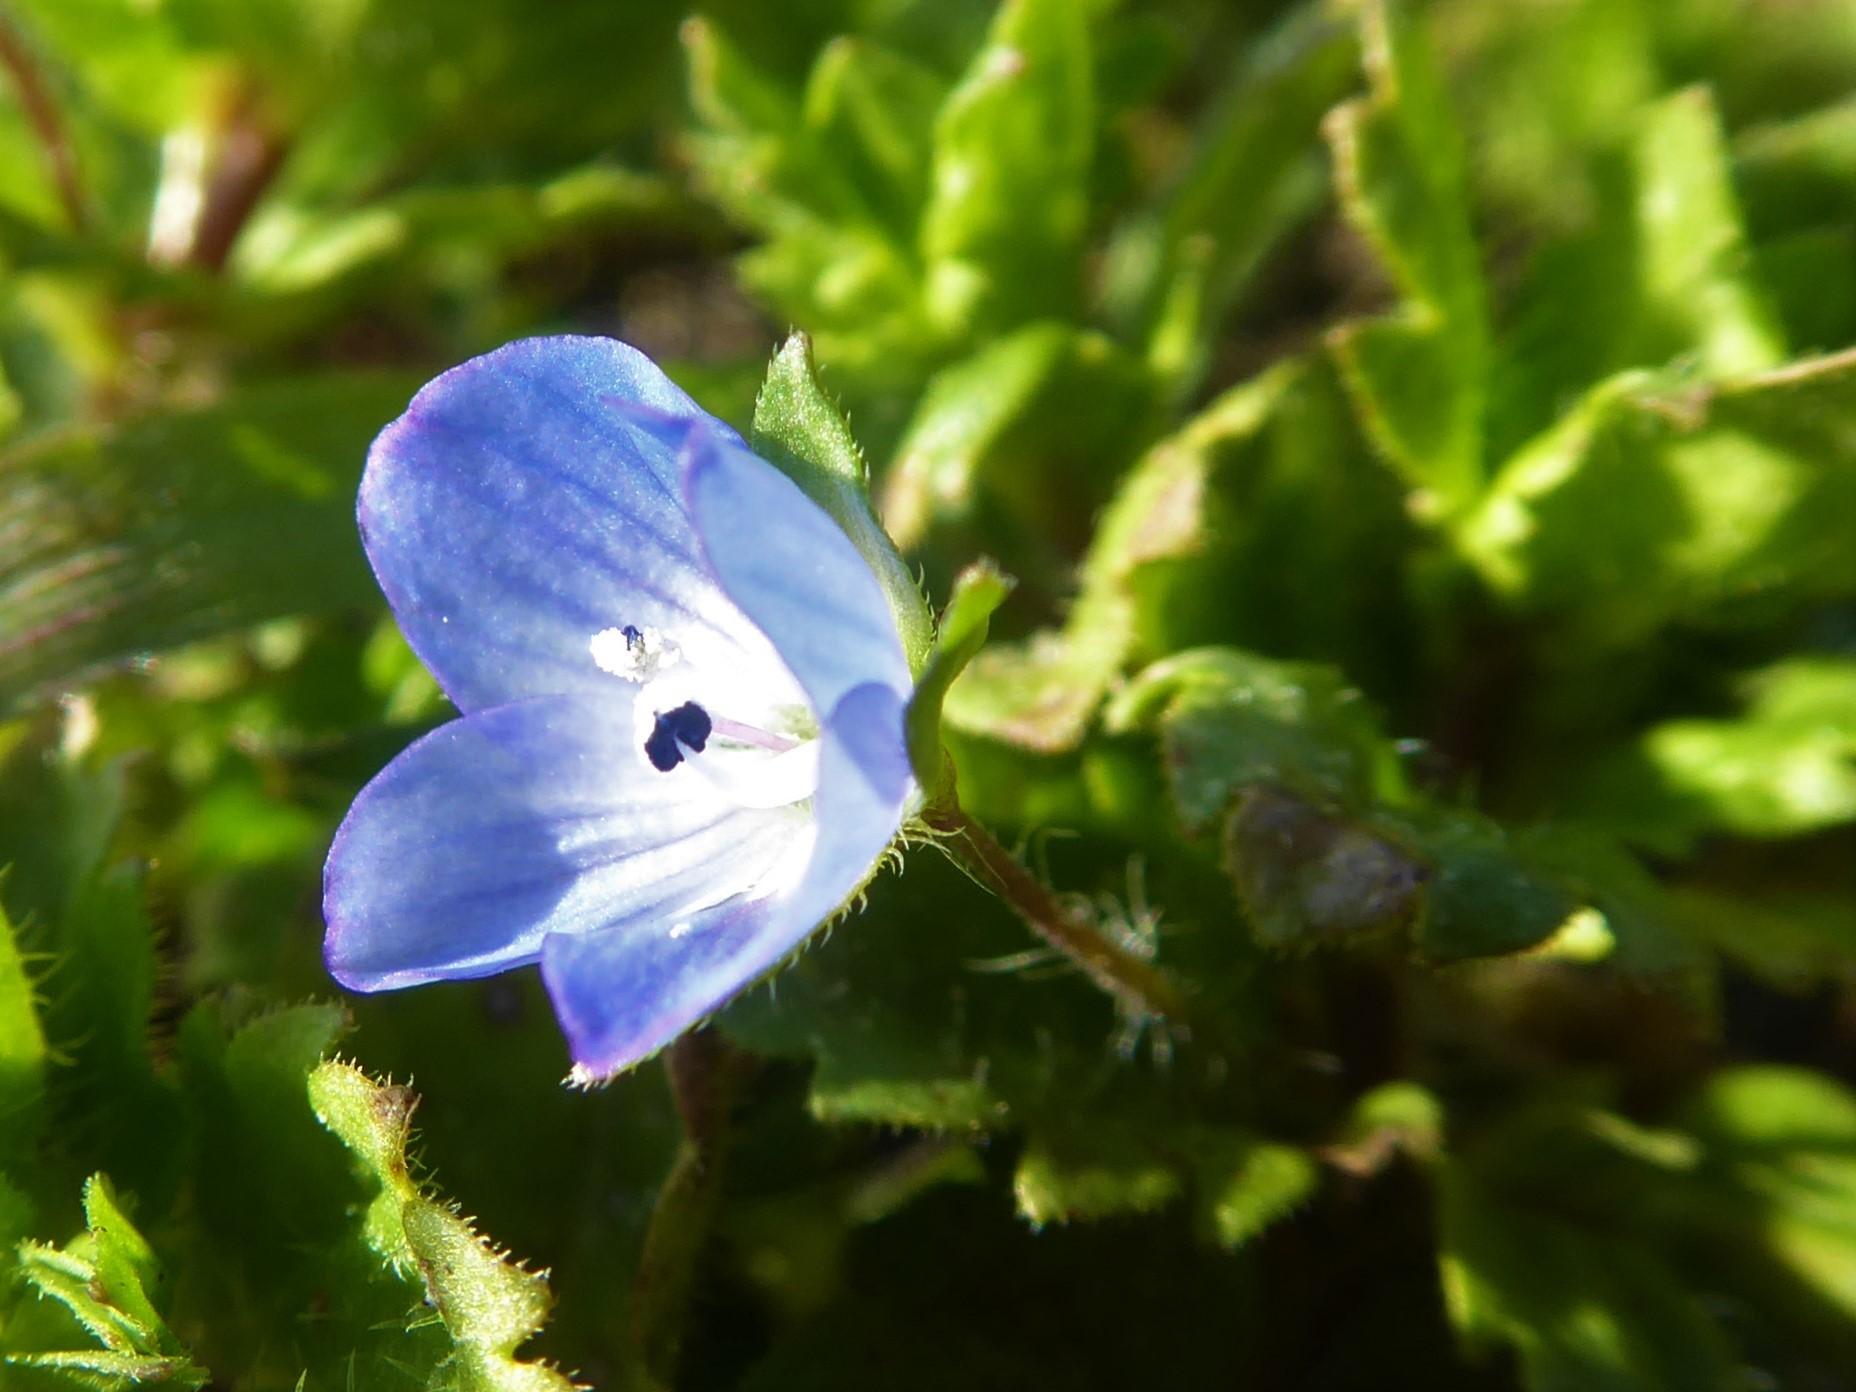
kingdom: Plantae
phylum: Tracheophyta
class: Magnoliopsida
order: Lamiales
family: Plantaginaceae
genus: Veronica
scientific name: Veronica persica
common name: Common field-speedwell
